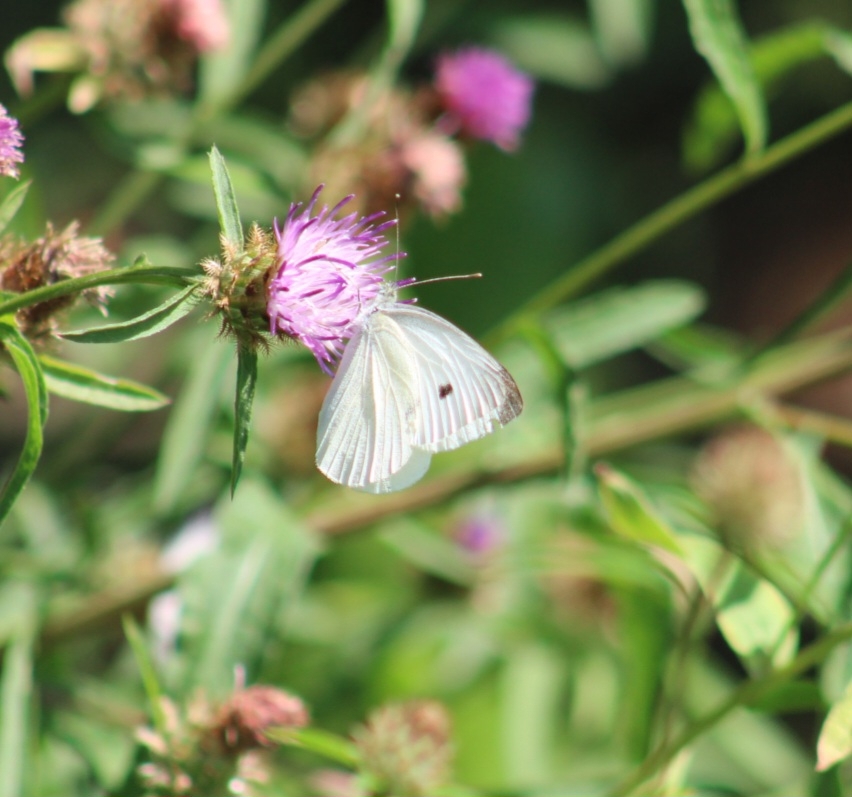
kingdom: Animalia
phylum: Arthropoda
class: Insecta
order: Lepidoptera
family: Pieridae
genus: Pieris
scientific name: Pieris rapae
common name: Small white
